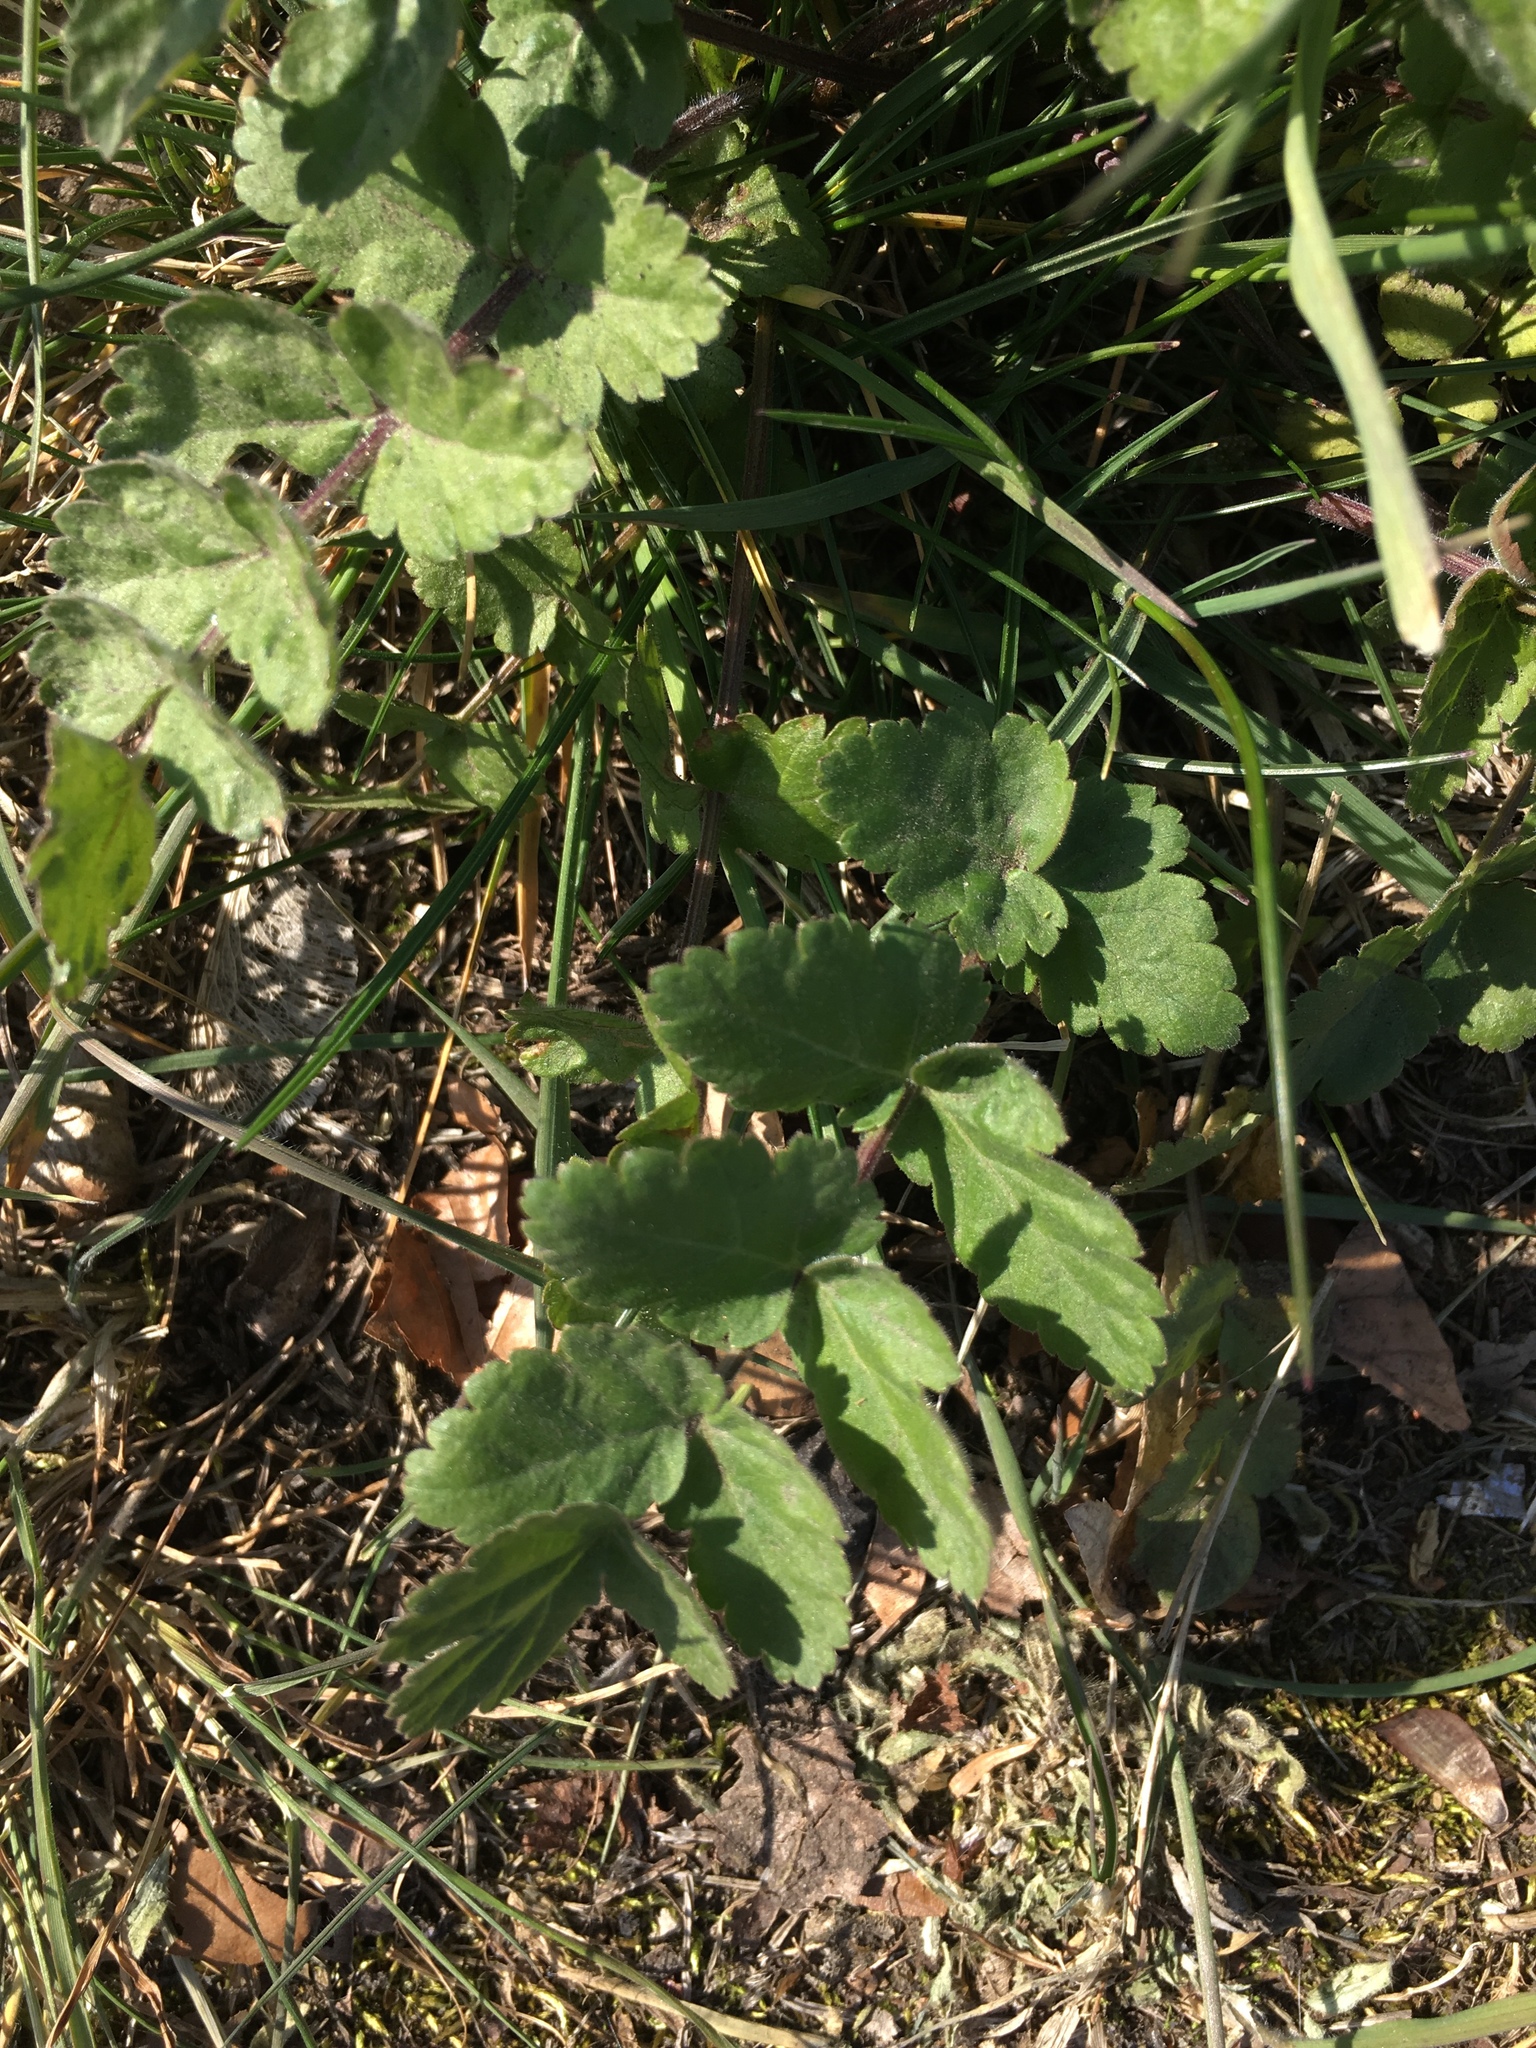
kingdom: Plantae
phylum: Tracheophyta
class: Magnoliopsida
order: Apiales
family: Apiaceae
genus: Pastinaca
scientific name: Pastinaca sativa
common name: Wild parsnip
